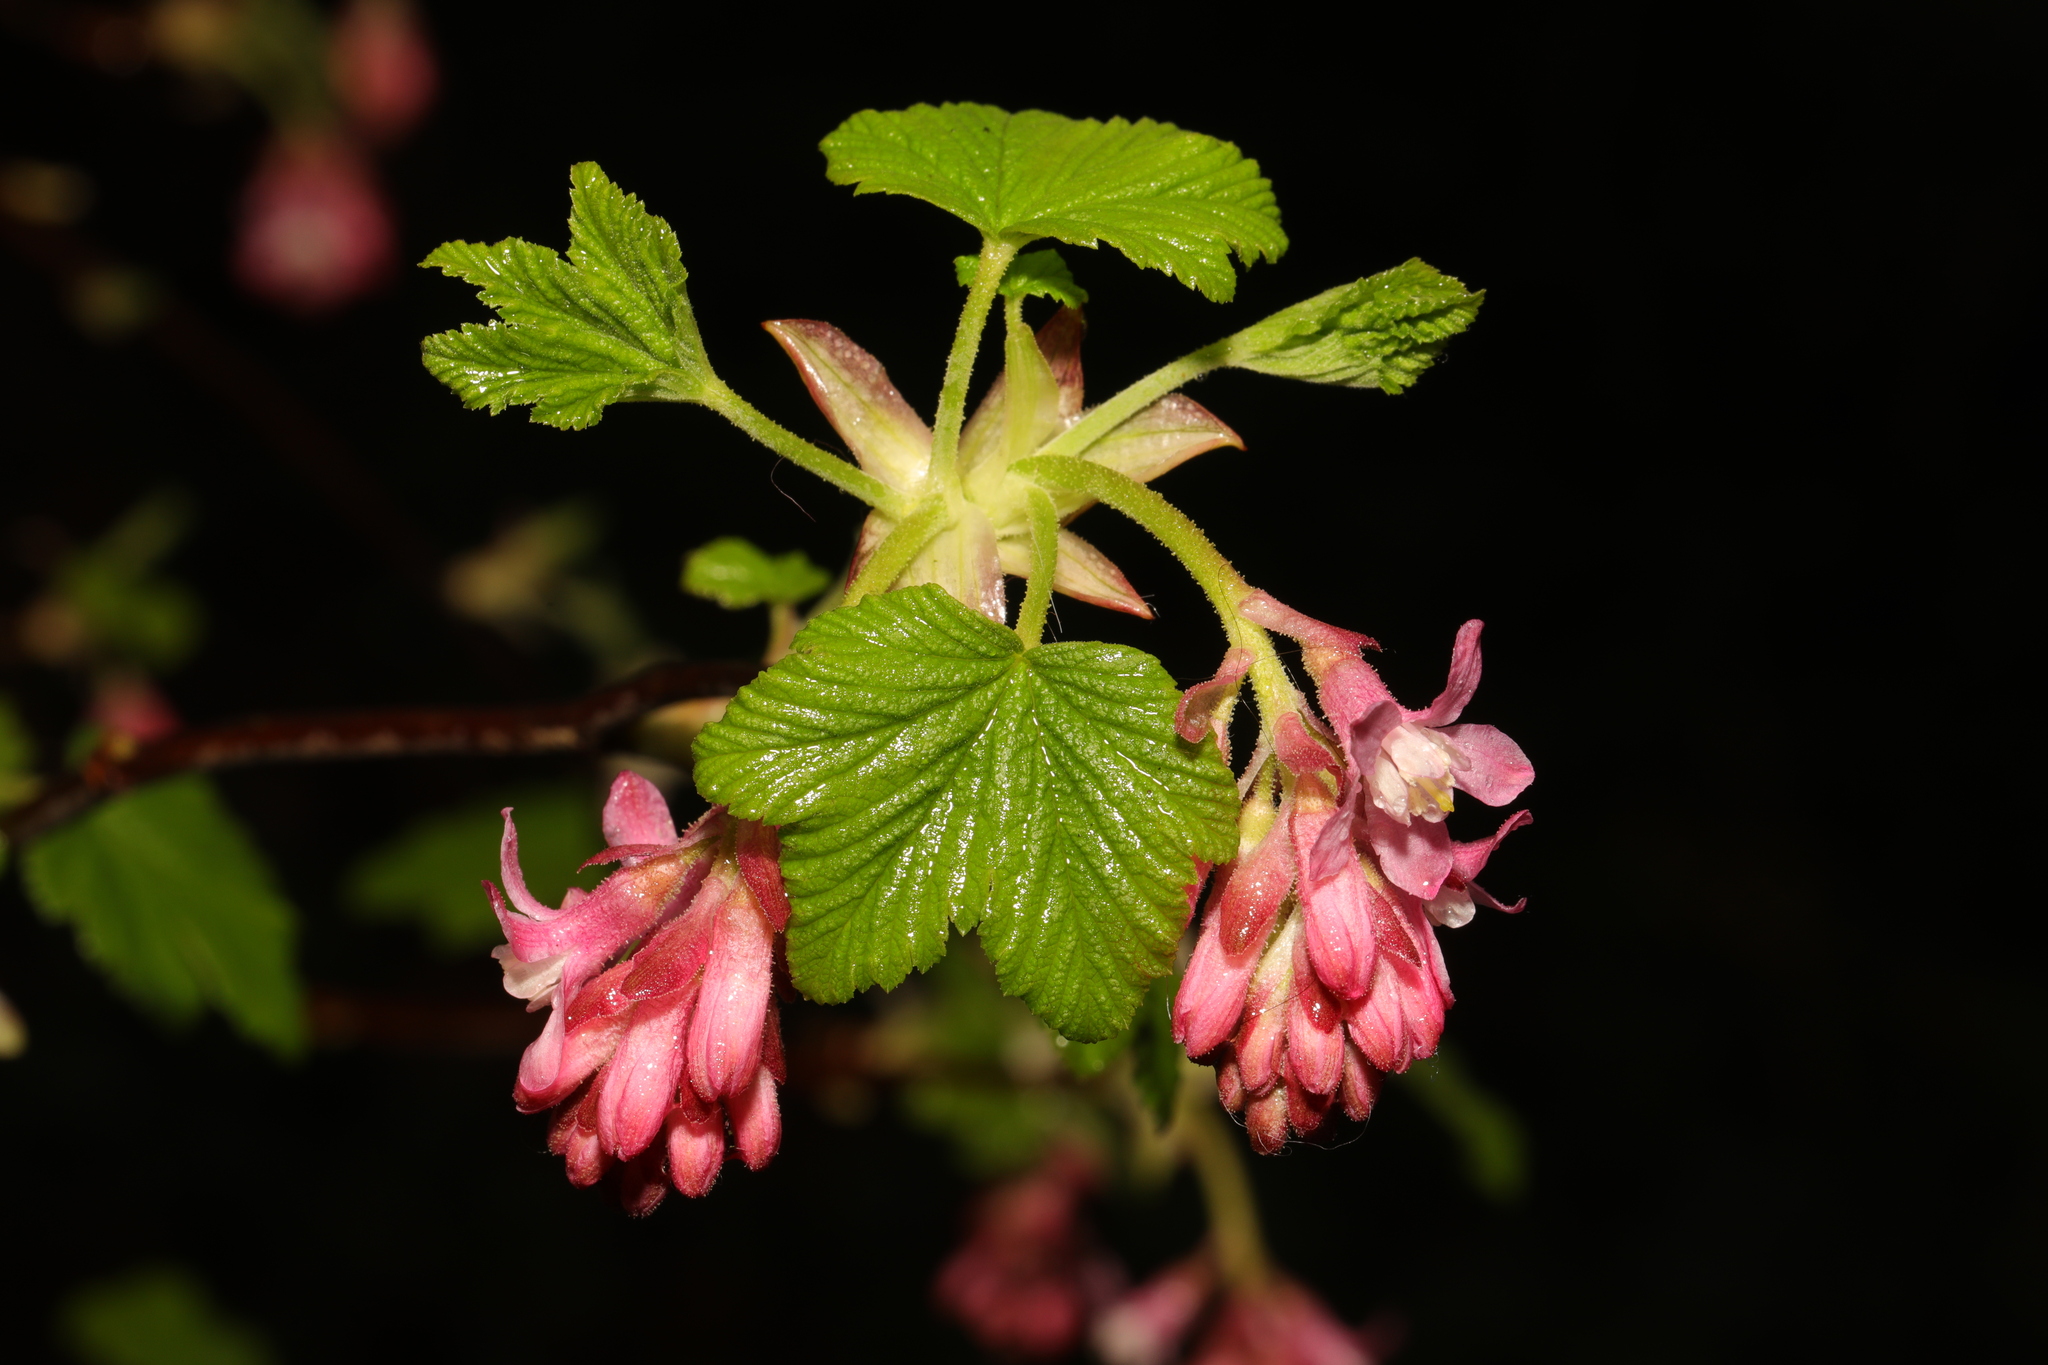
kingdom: Plantae
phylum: Tracheophyta
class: Magnoliopsida
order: Saxifragales
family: Grossulariaceae
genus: Ribes
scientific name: Ribes sanguineum
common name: Flowering currant
